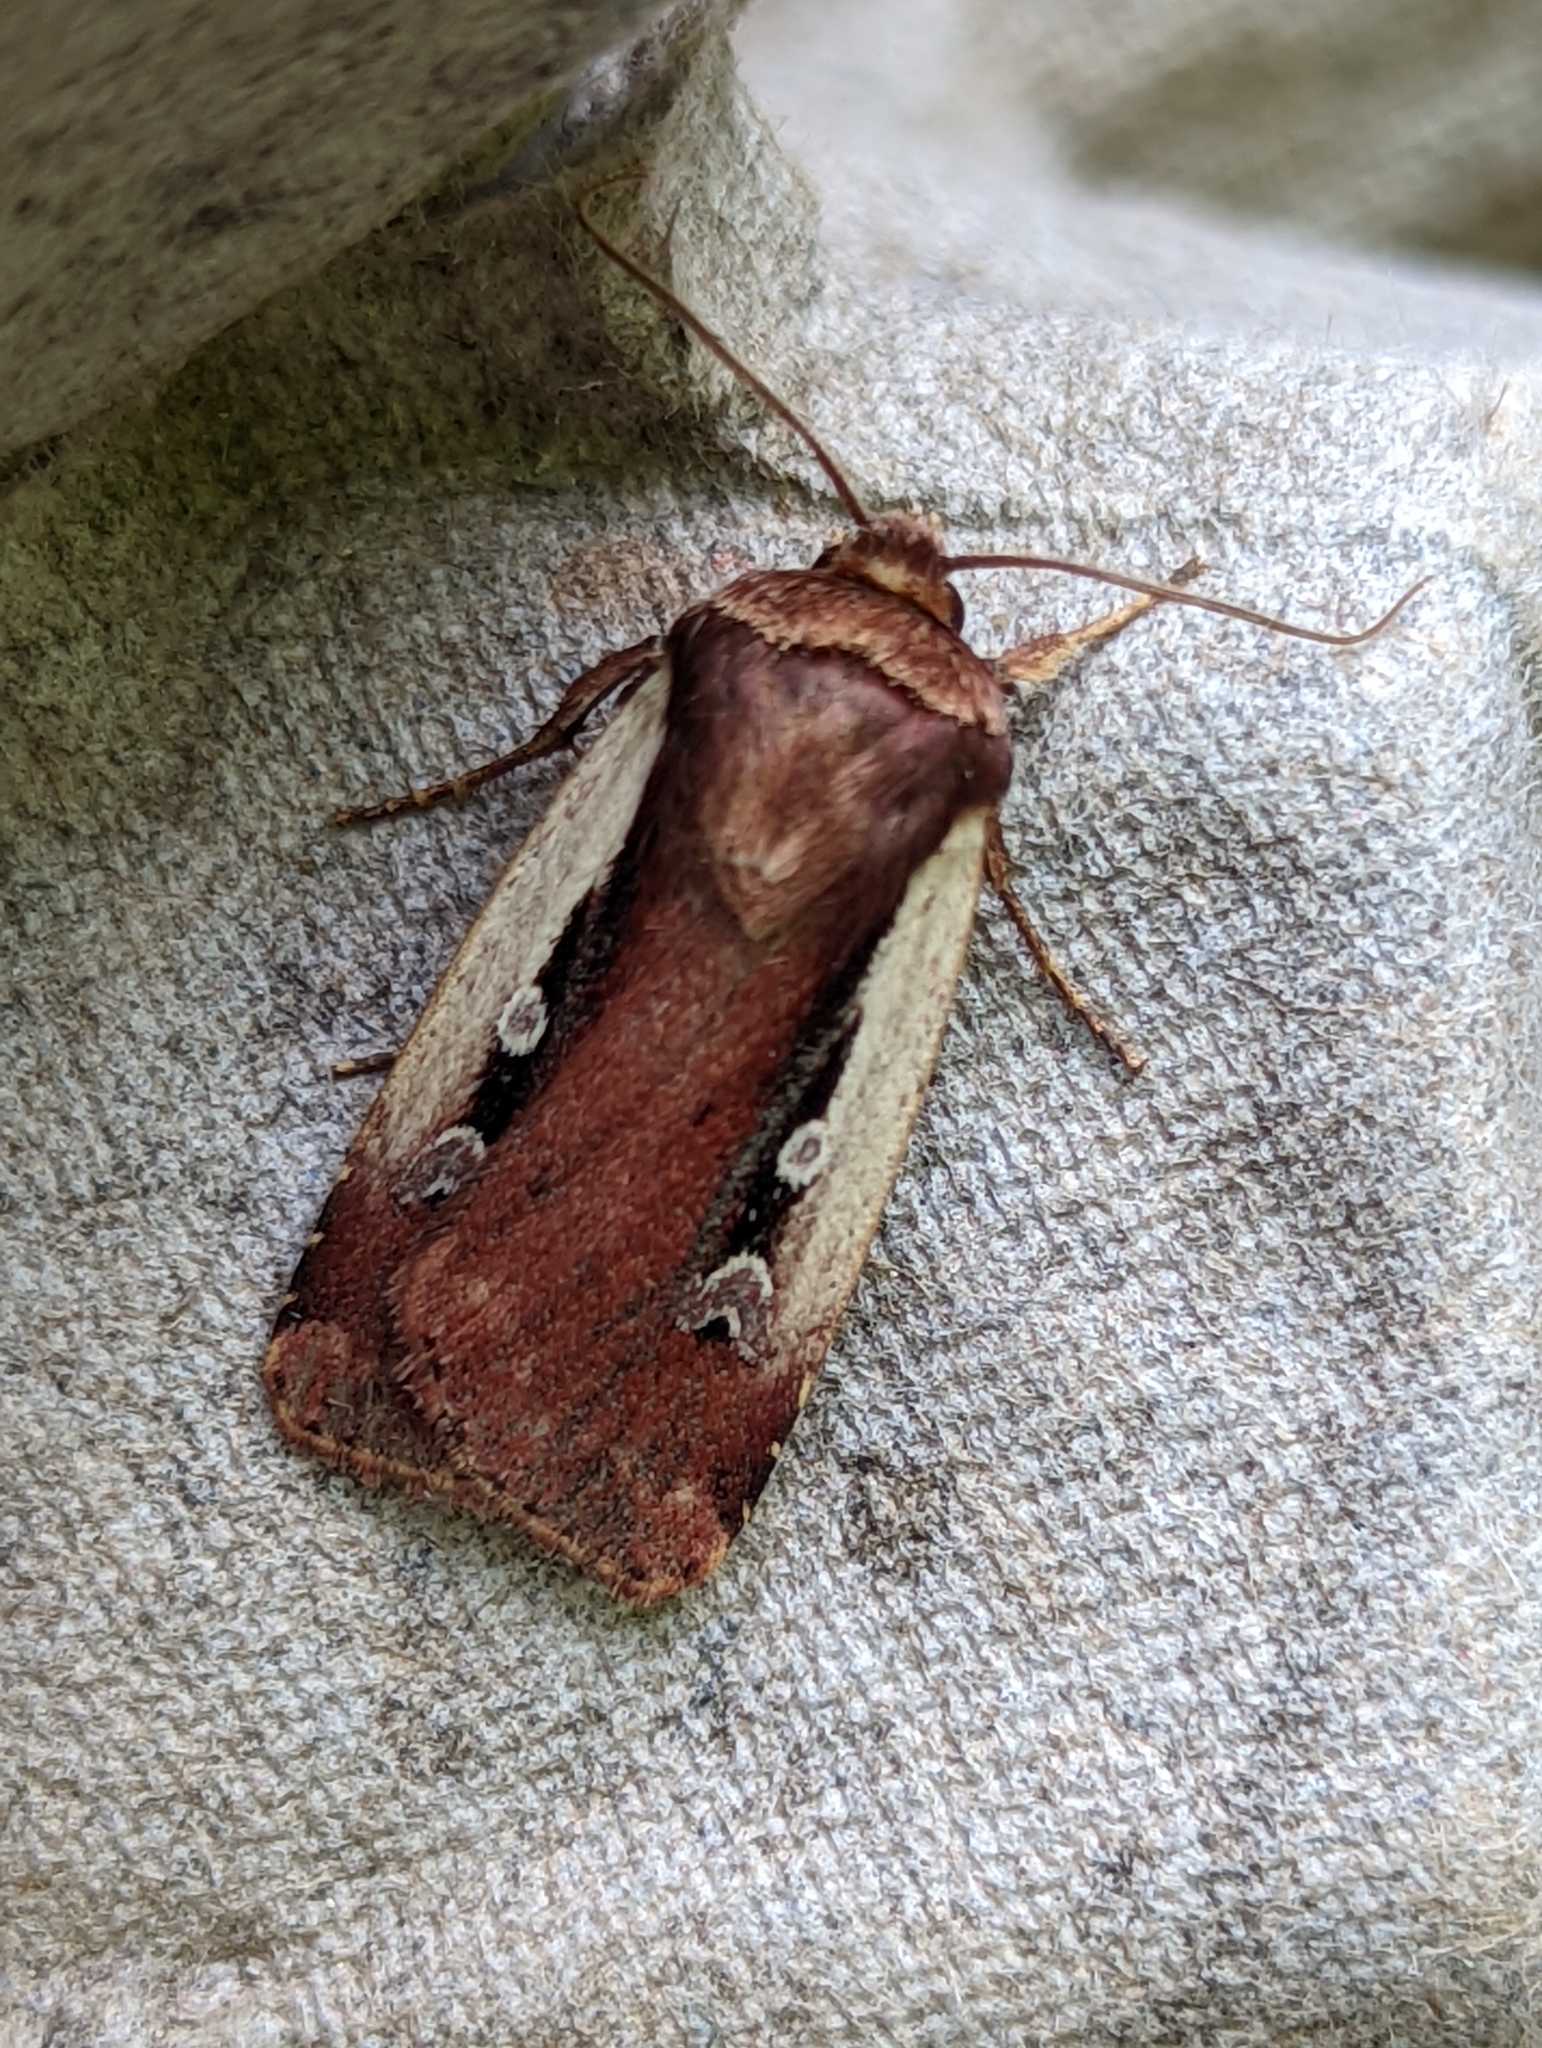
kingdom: Animalia
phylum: Arthropoda
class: Insecta
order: Lepidoptera
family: Noctuidae
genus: Ochropleura
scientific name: Ochropleura plecta
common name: Flame shoulder
